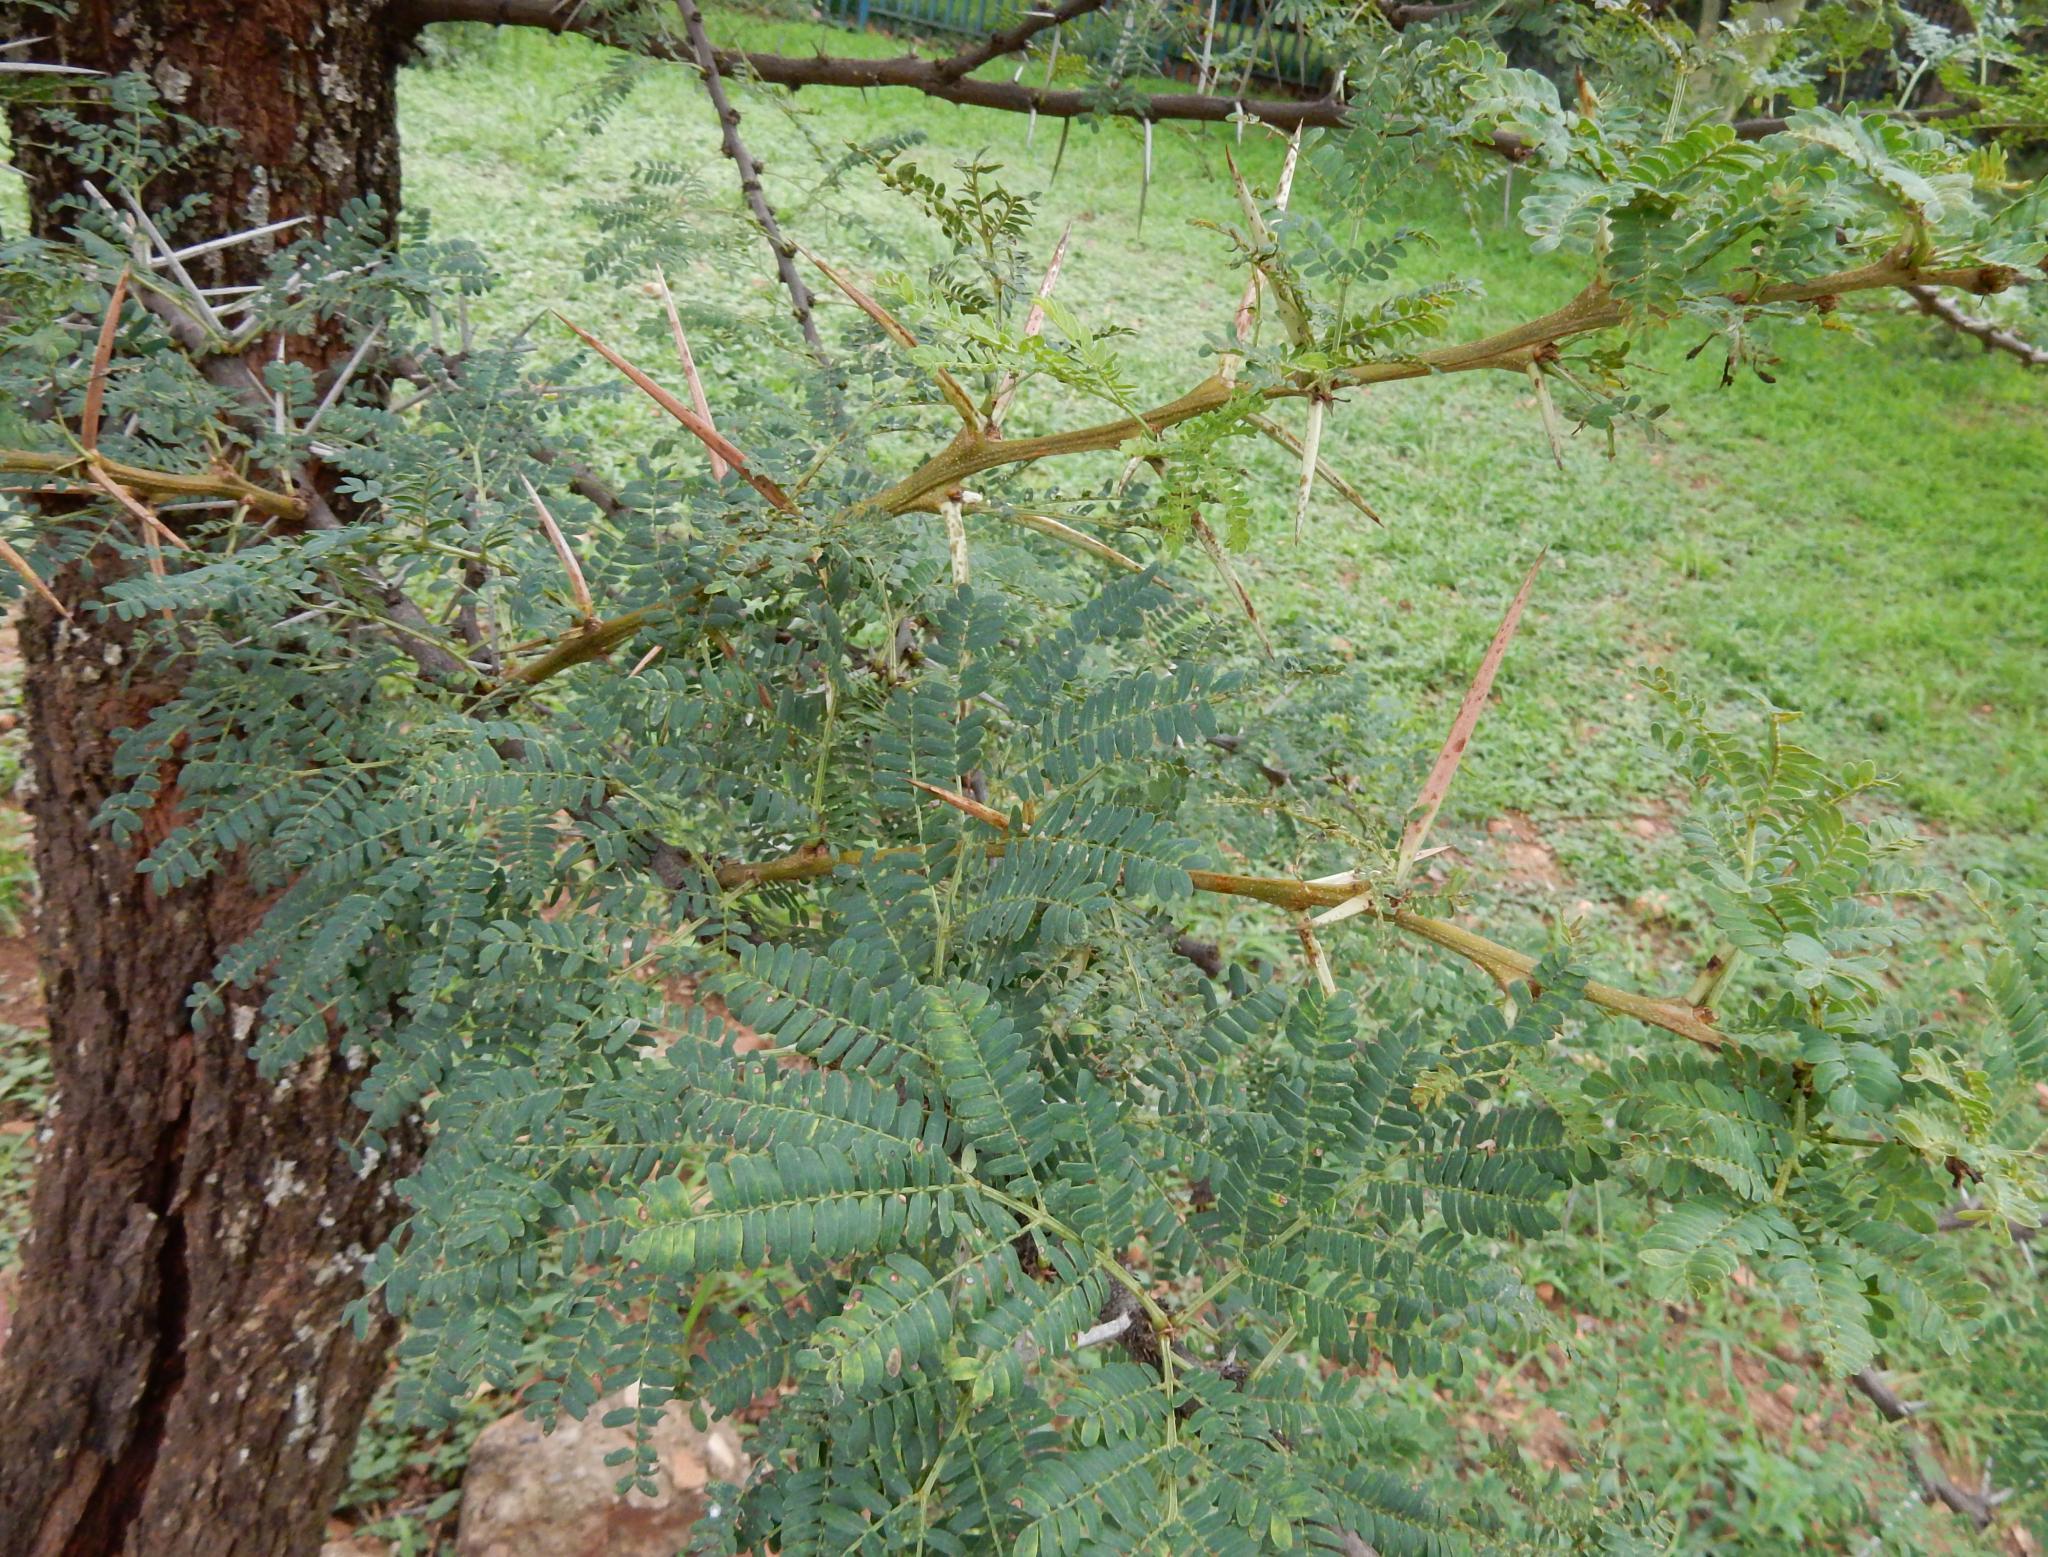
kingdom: Plantae
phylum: Tracheophyta
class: Magnoliopsida
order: Fabales
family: Fabaceae
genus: Vachellia
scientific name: Vachellia robusta
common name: Ankle thorn
